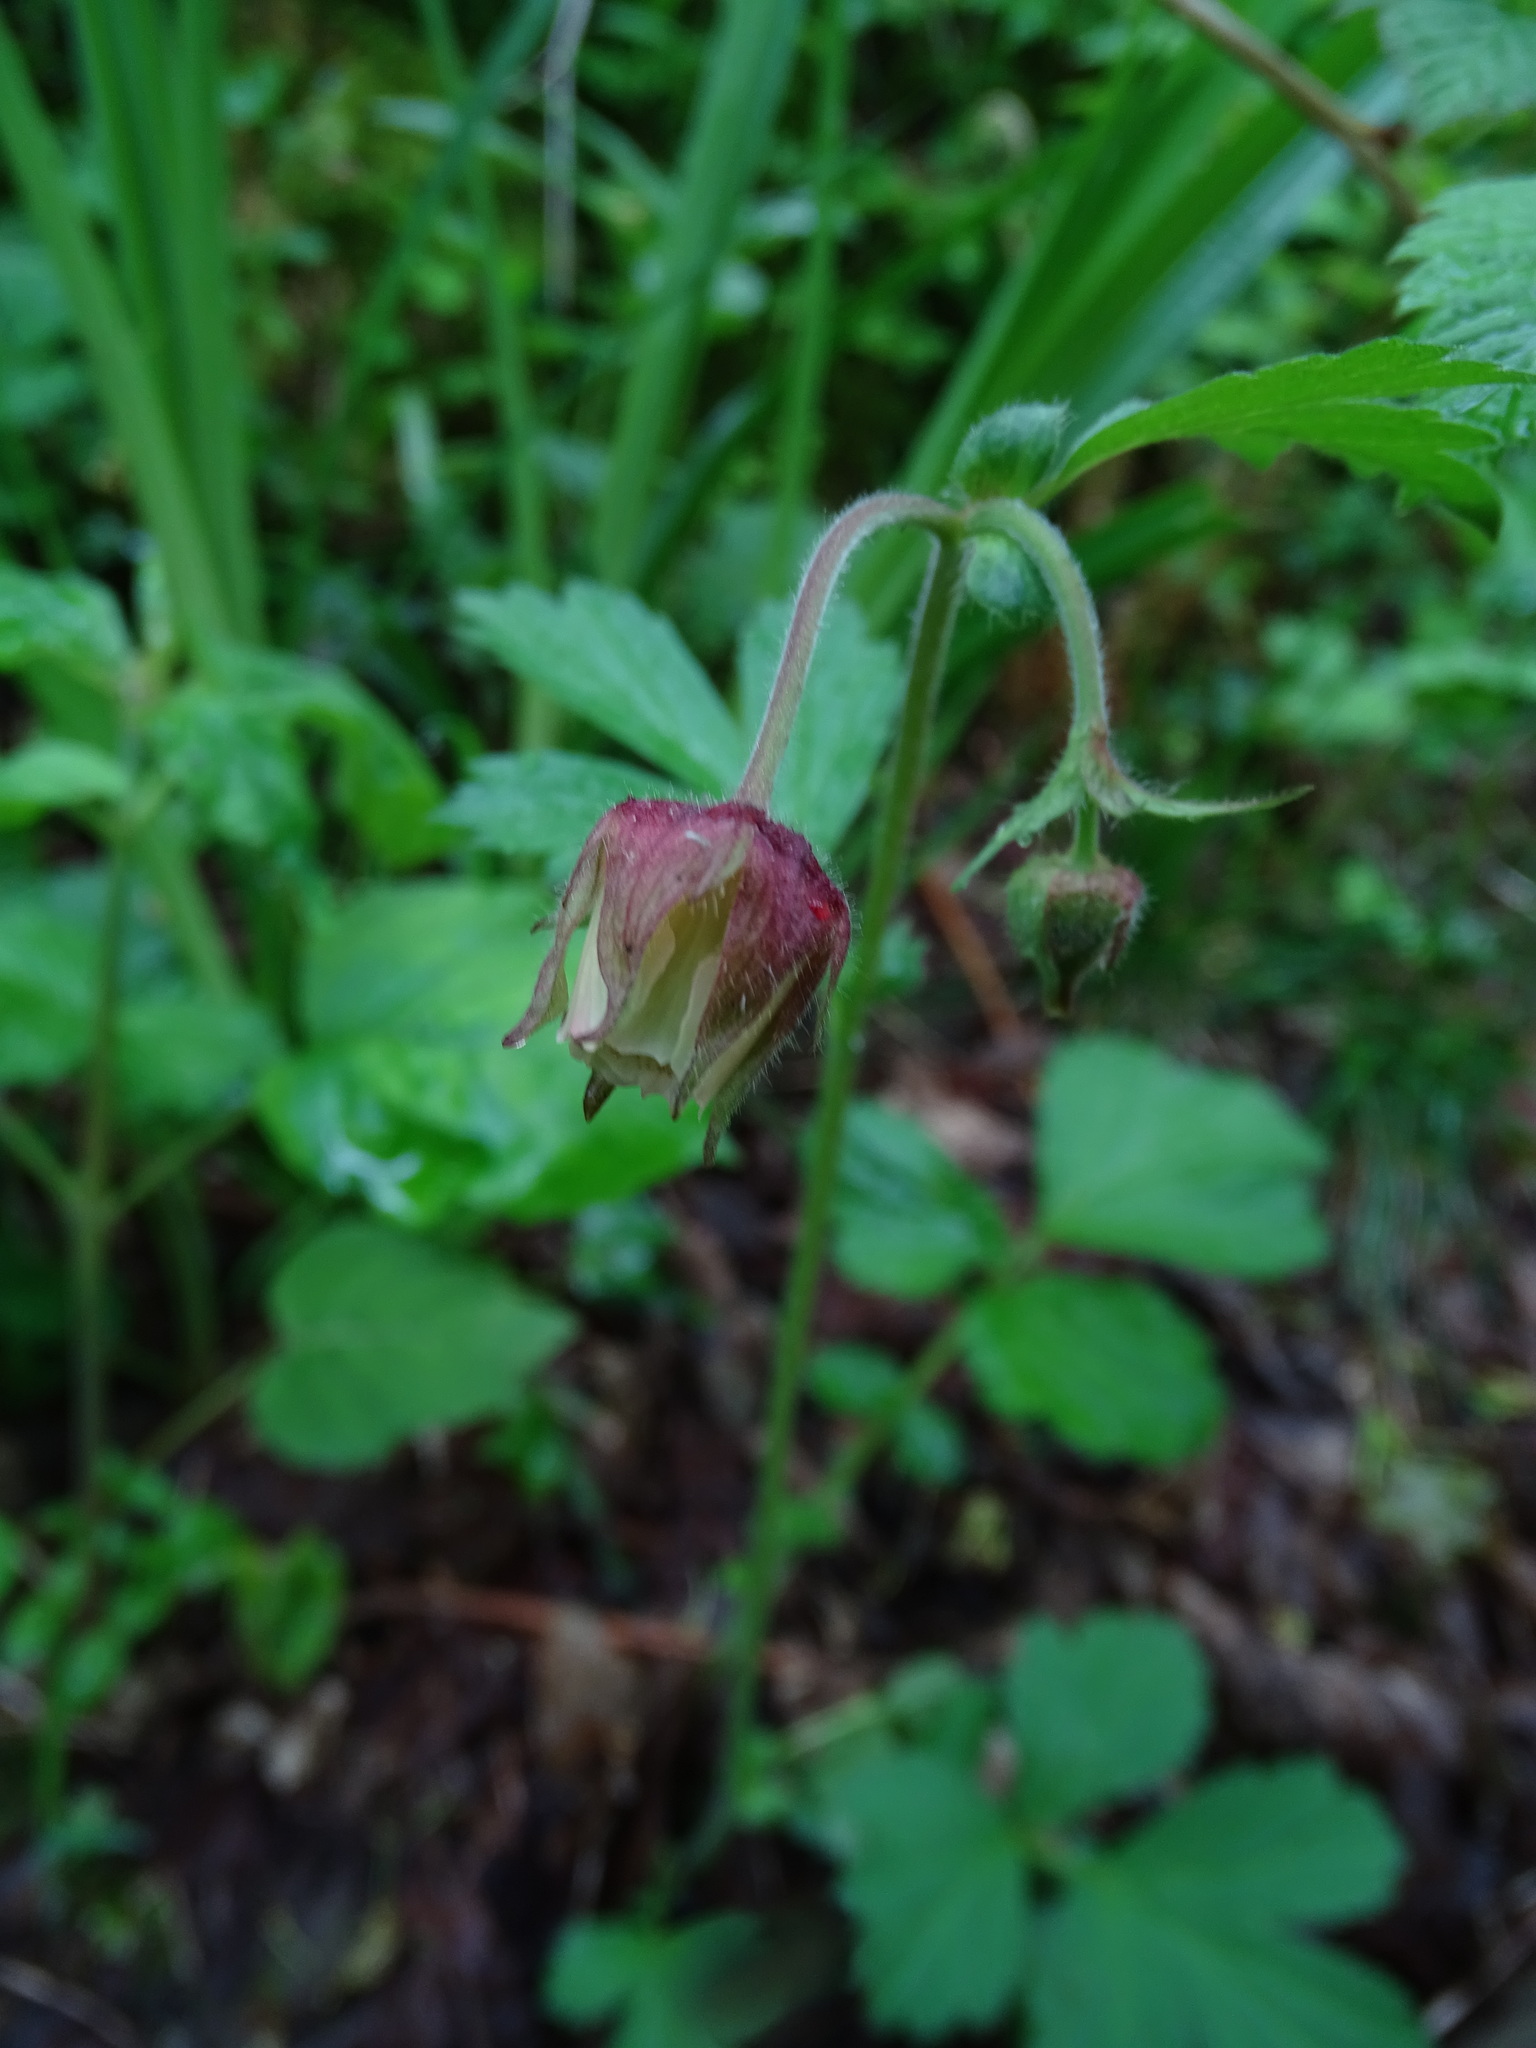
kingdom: Plantae
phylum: Tracheophyta
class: Magnoliopsida
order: Rosales
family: Rosaceae
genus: Geum
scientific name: Geum rivale
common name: Water avens
